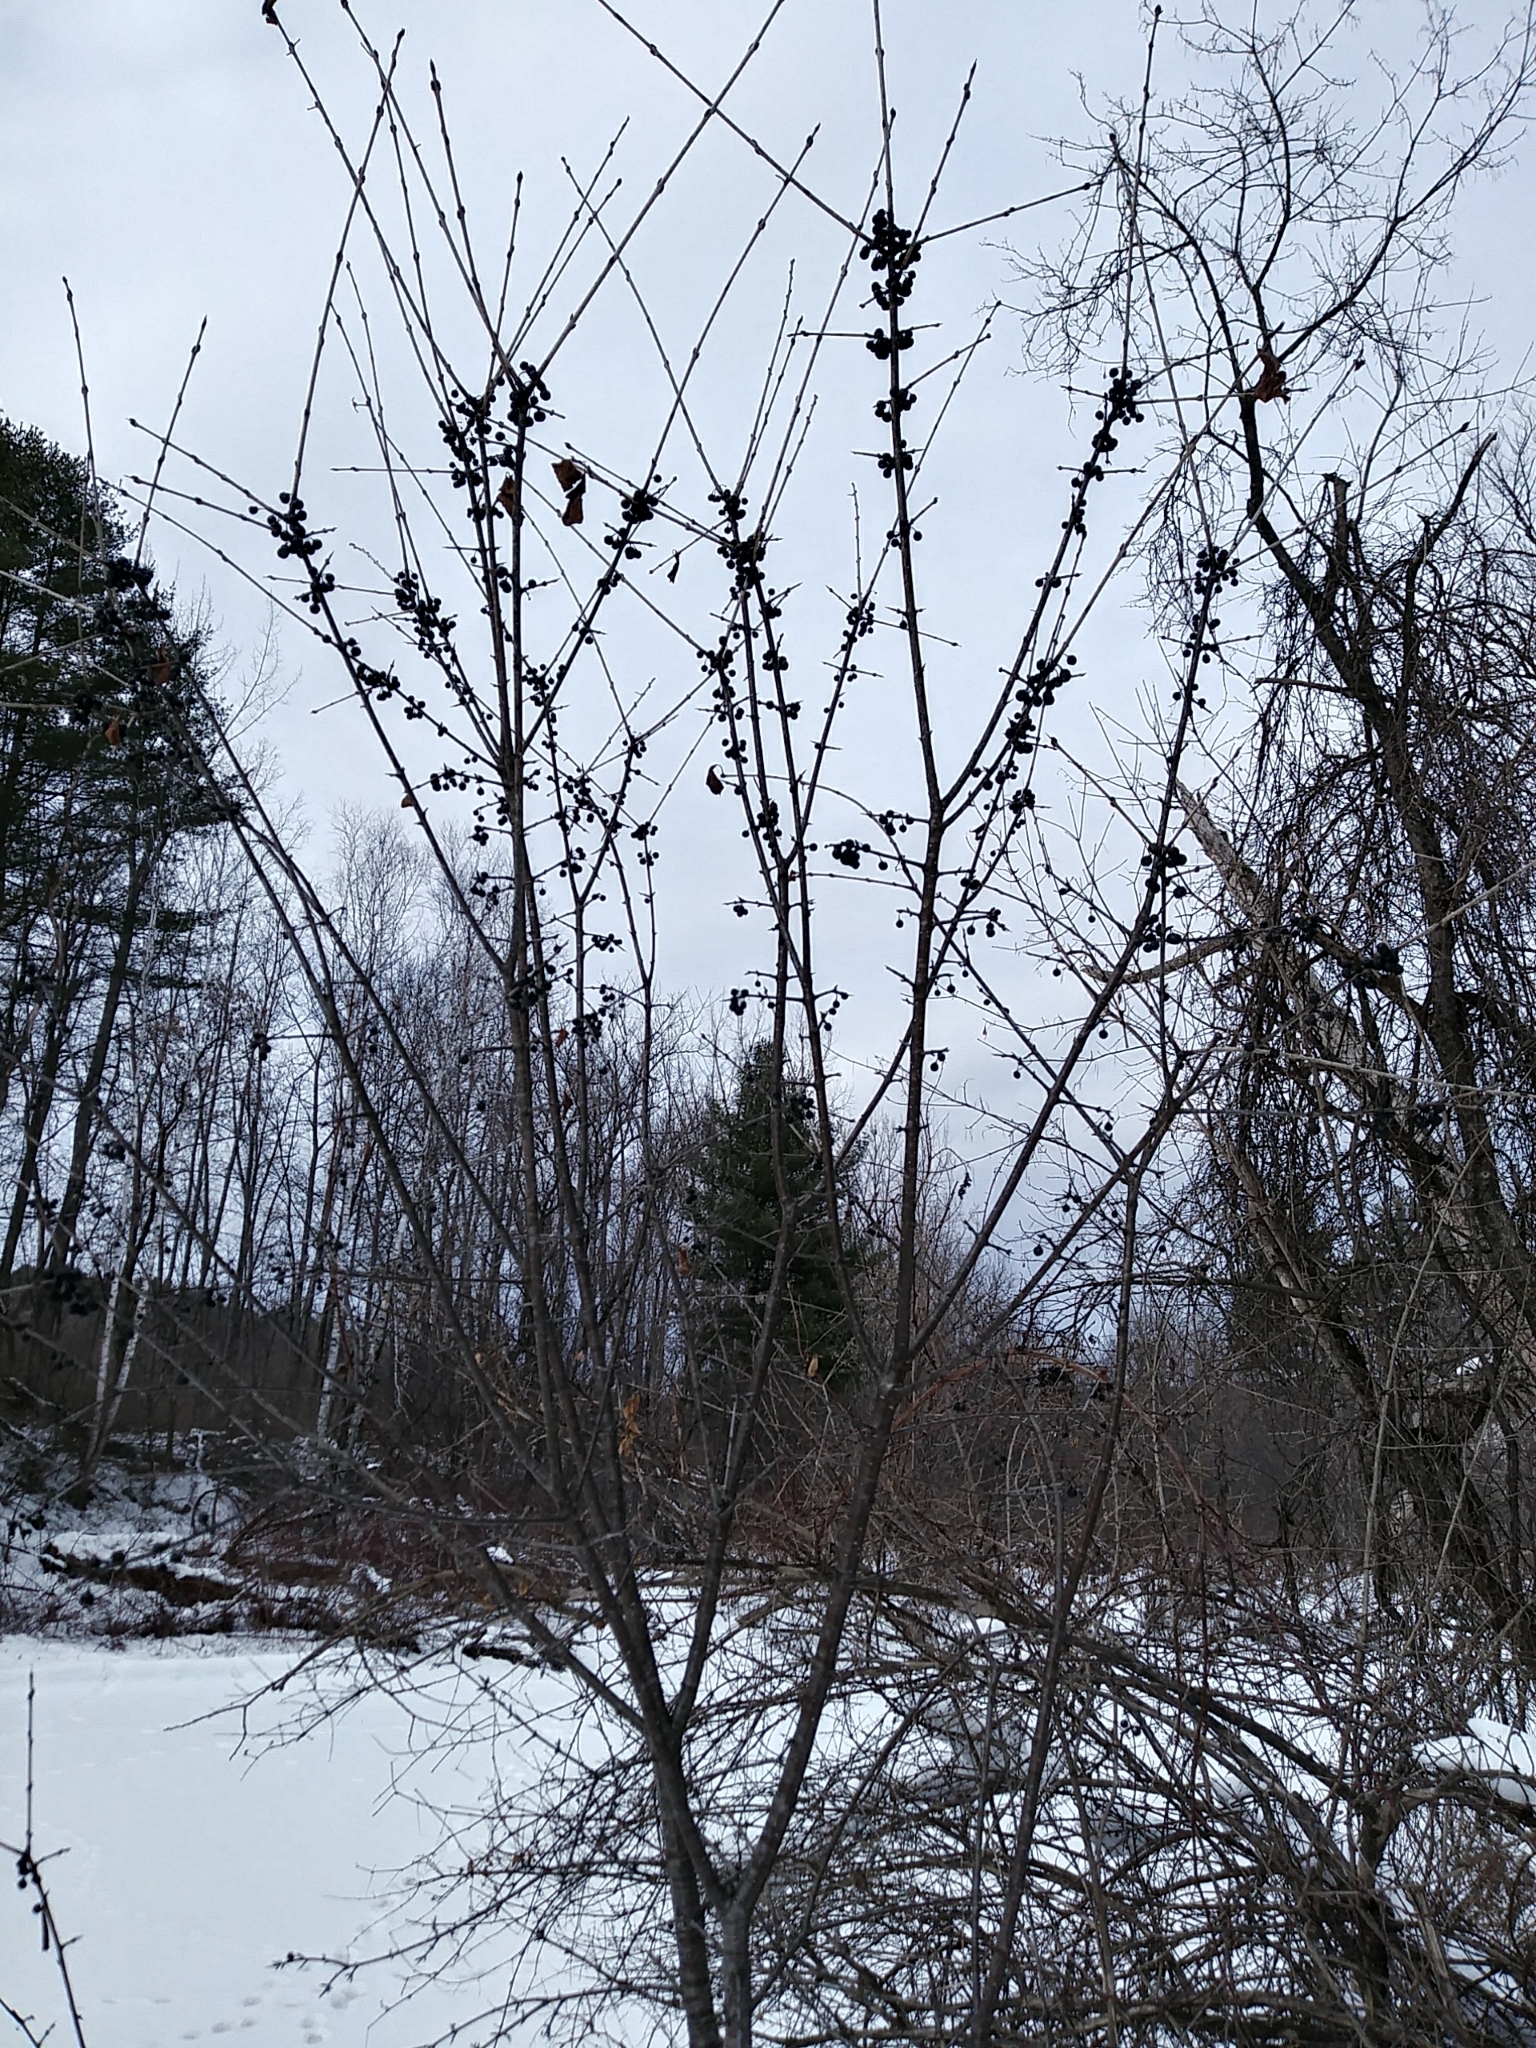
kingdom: Plantae
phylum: Tracheophyta
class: Magnoliopsida
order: Rosales
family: Rhamnaceae
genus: Rhamnus
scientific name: Rhamnus cathartica
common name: Common buckthorn
